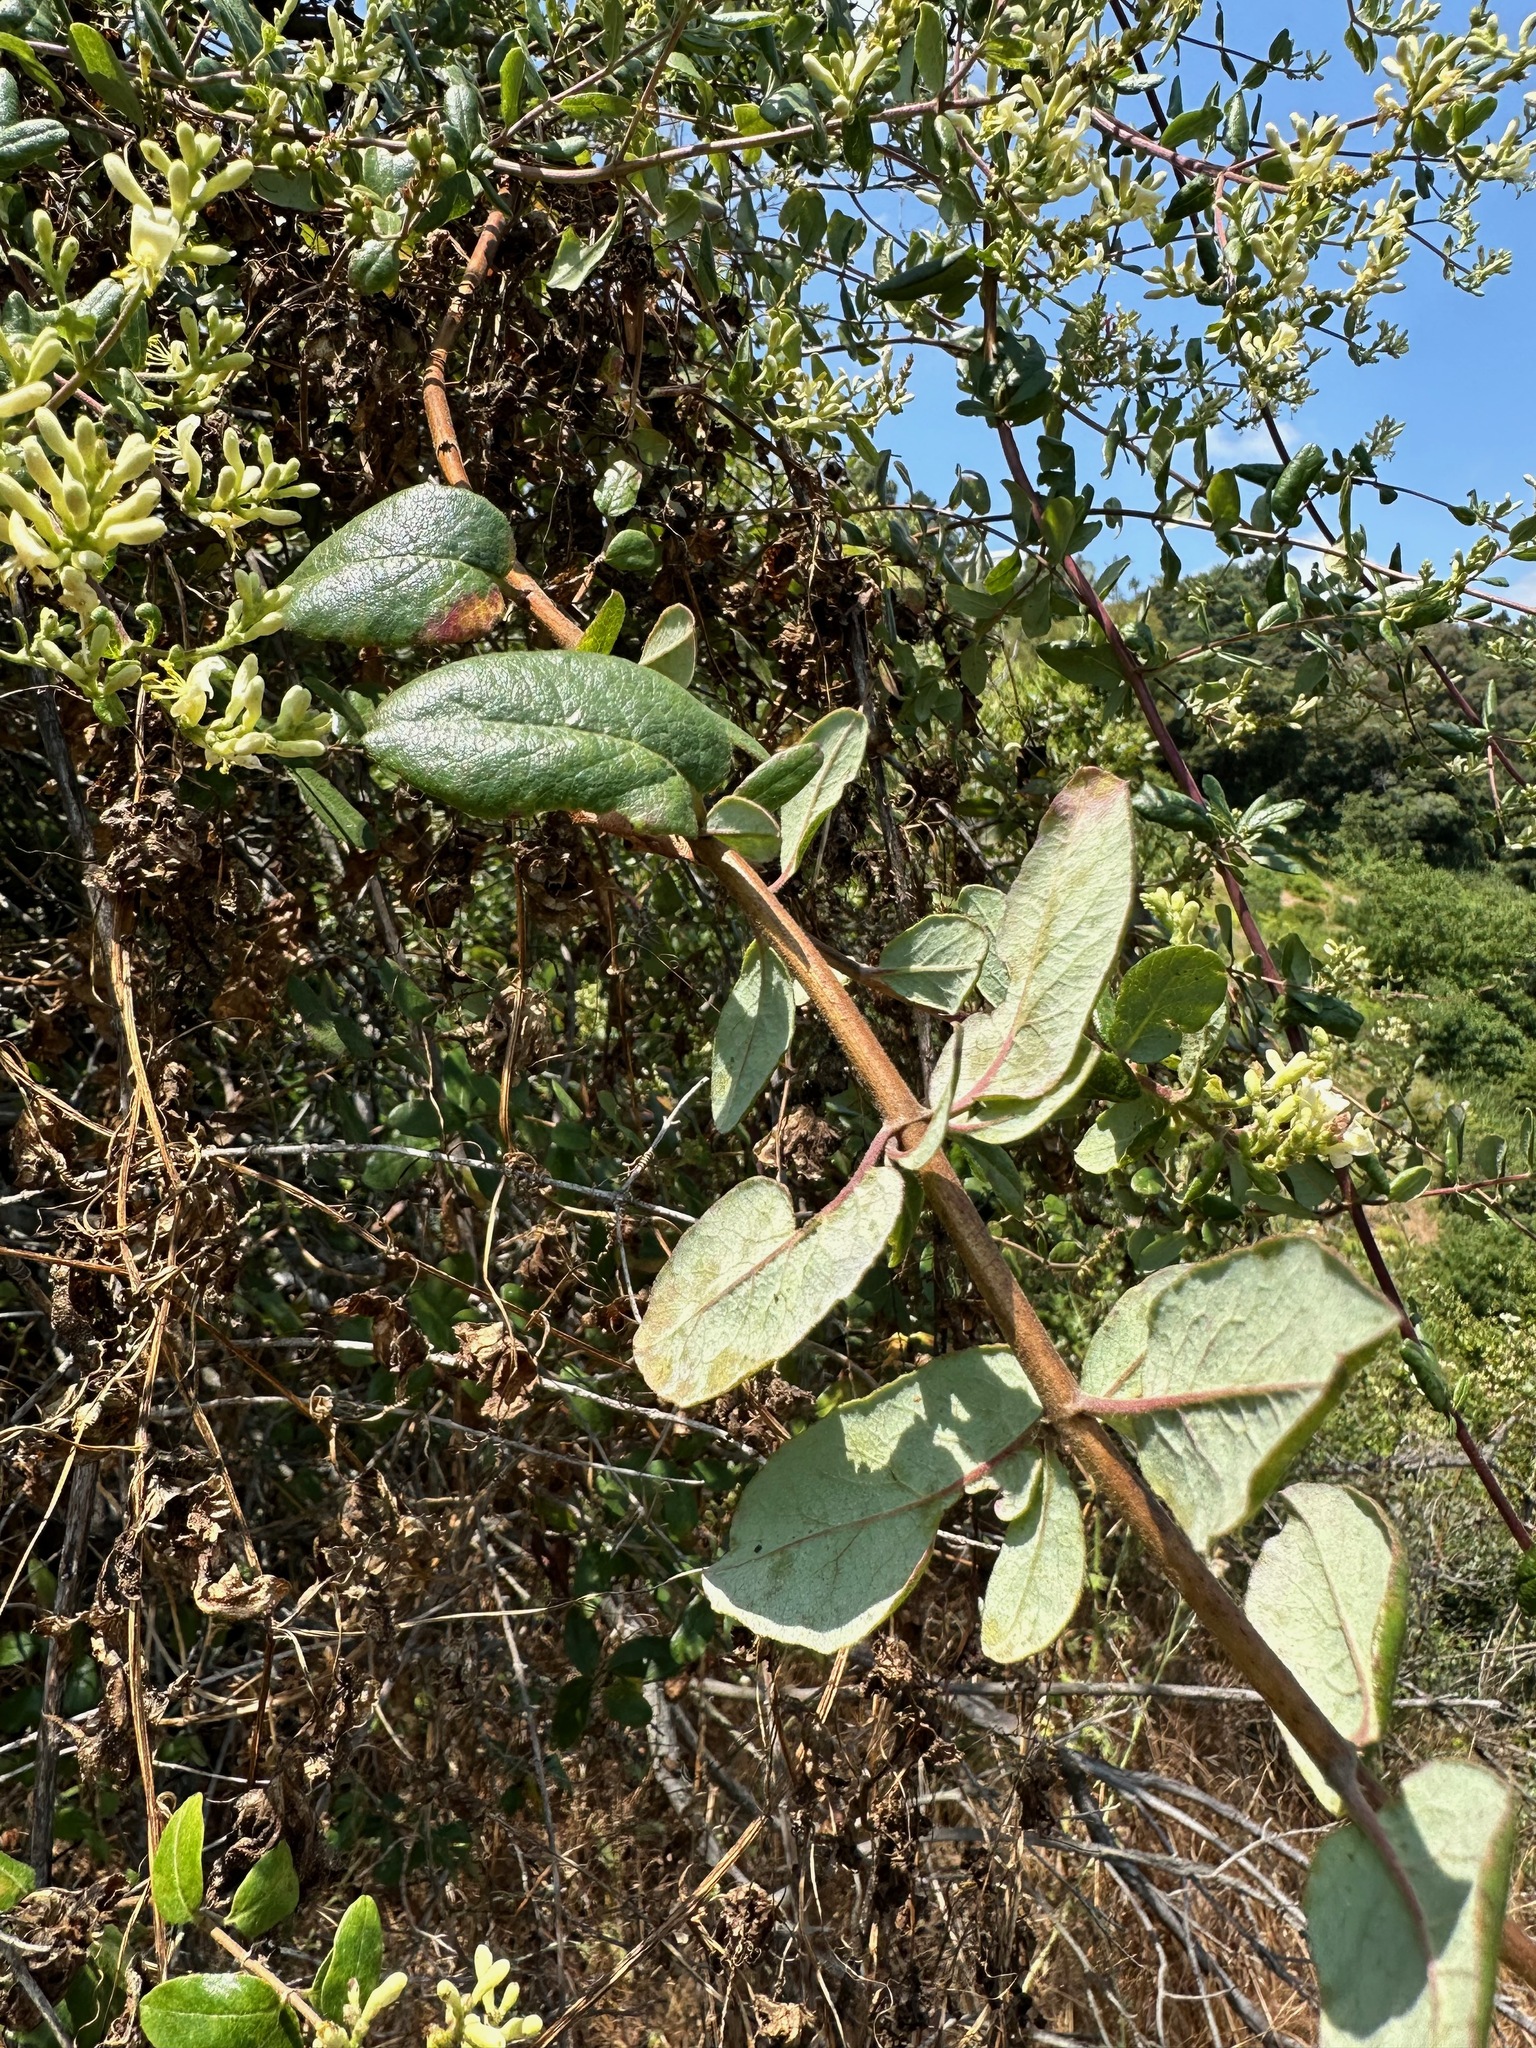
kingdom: Plantae
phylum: Tracheophyta
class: Magnoliopsida
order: Dipsacales
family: Caprifoliaceae
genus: Lonicera
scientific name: Lonicera subspicata
